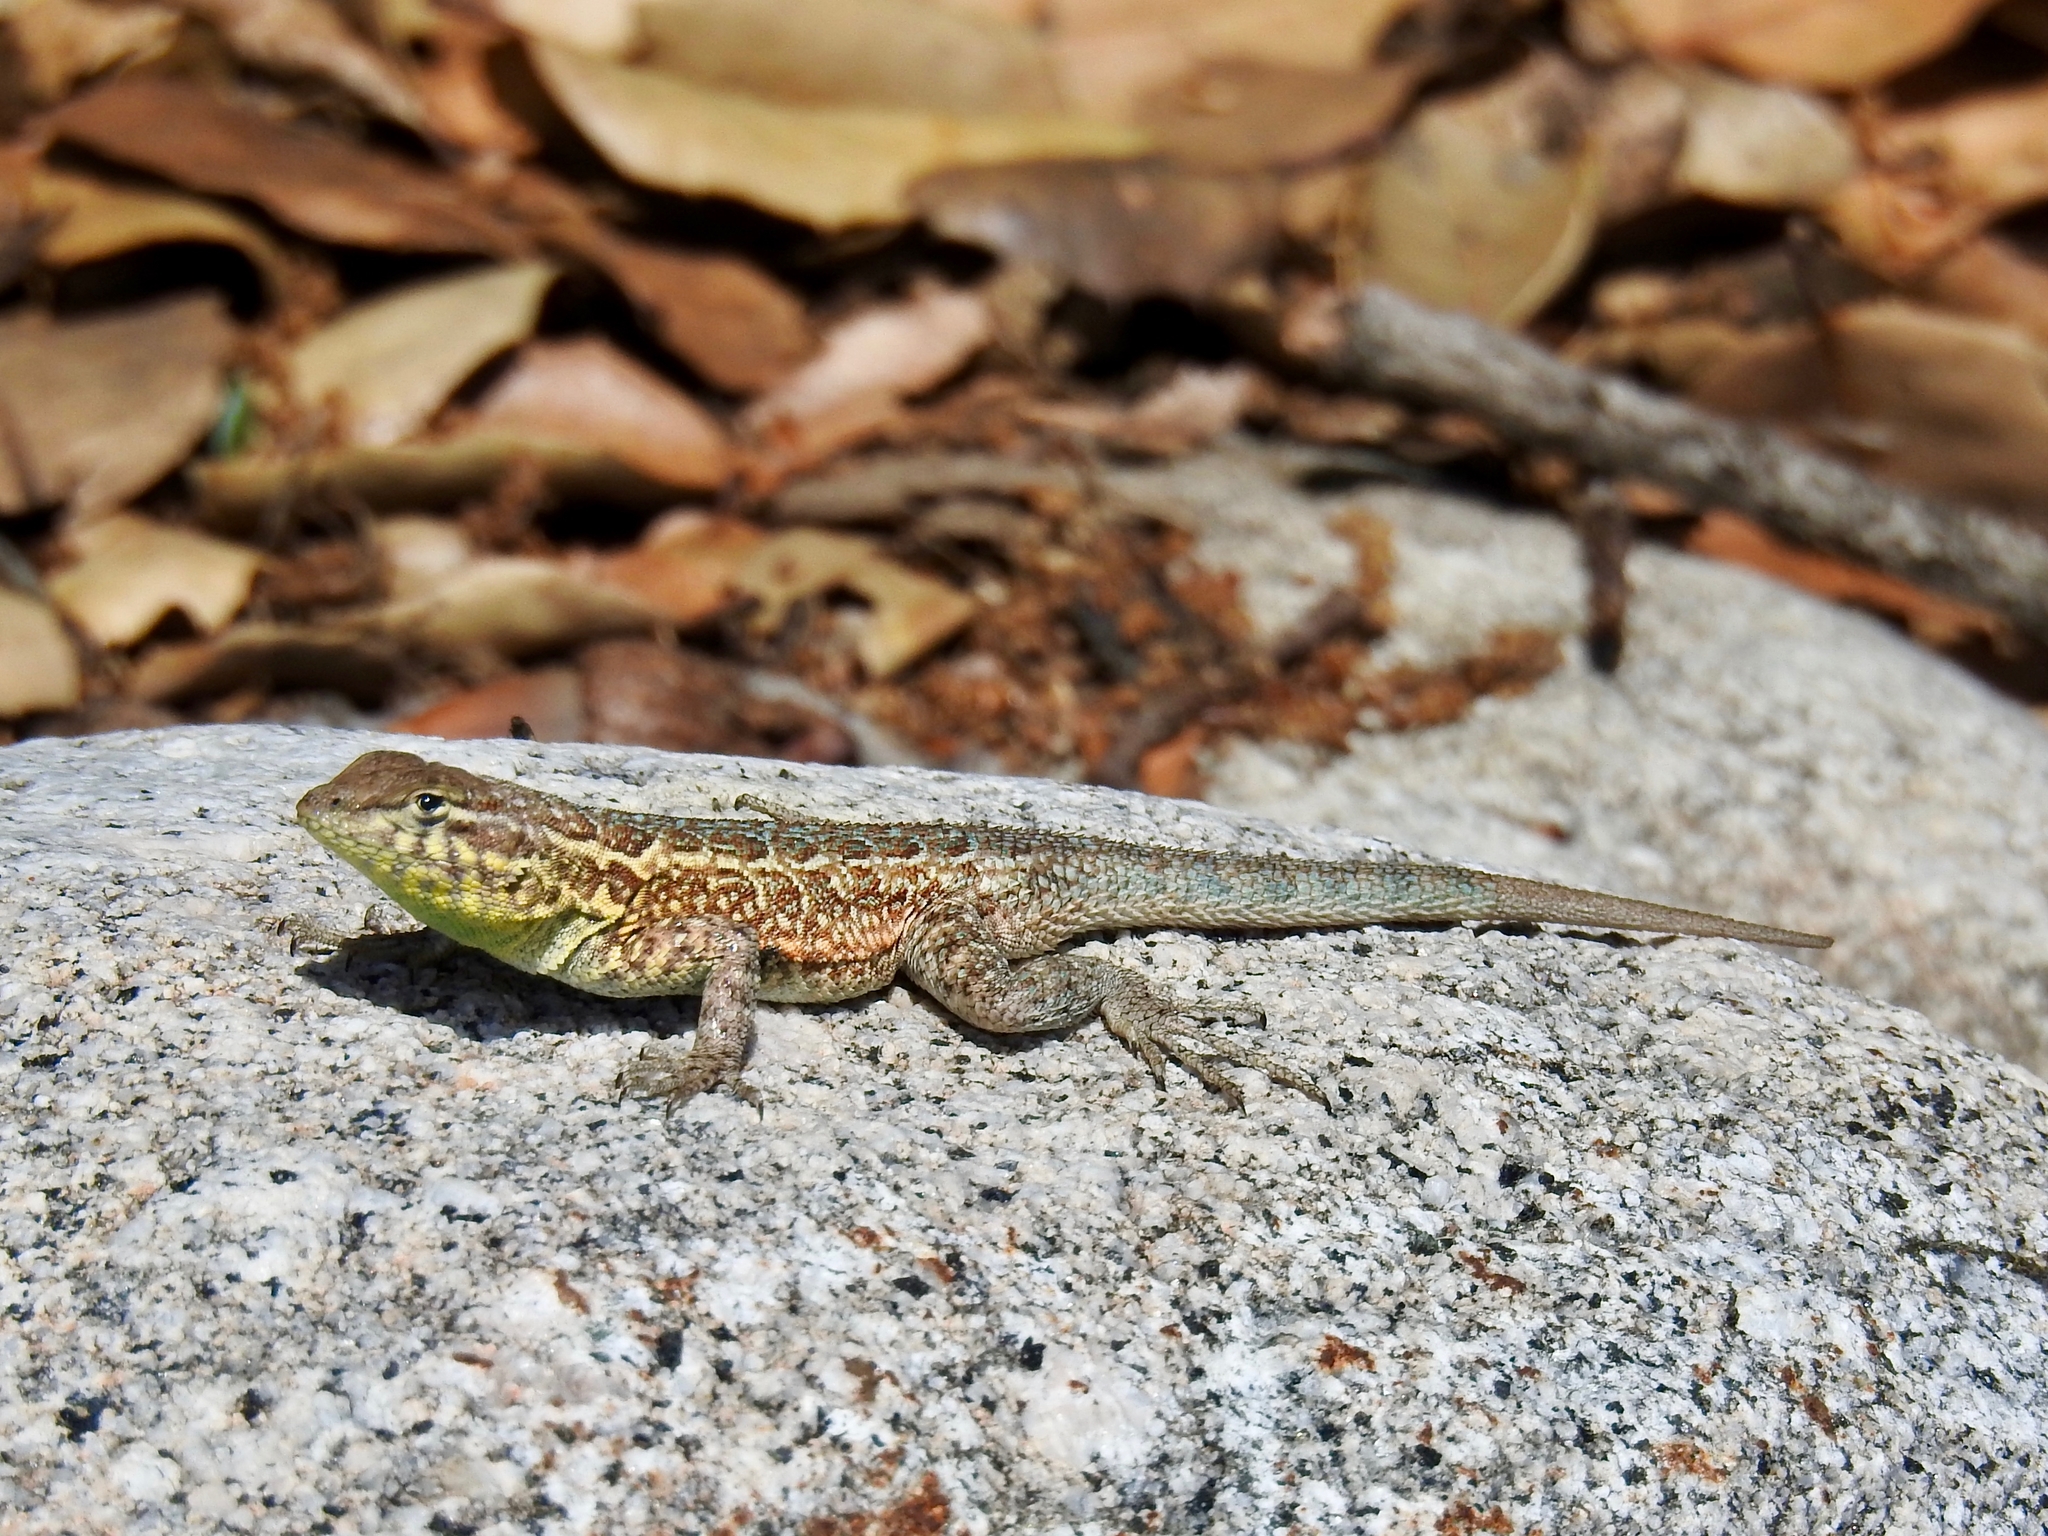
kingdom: Animalia
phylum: Chordata
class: Squamata
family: Phrynosomatidae
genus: Uta
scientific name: Uta stansburiana
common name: Side-blotched lizard
